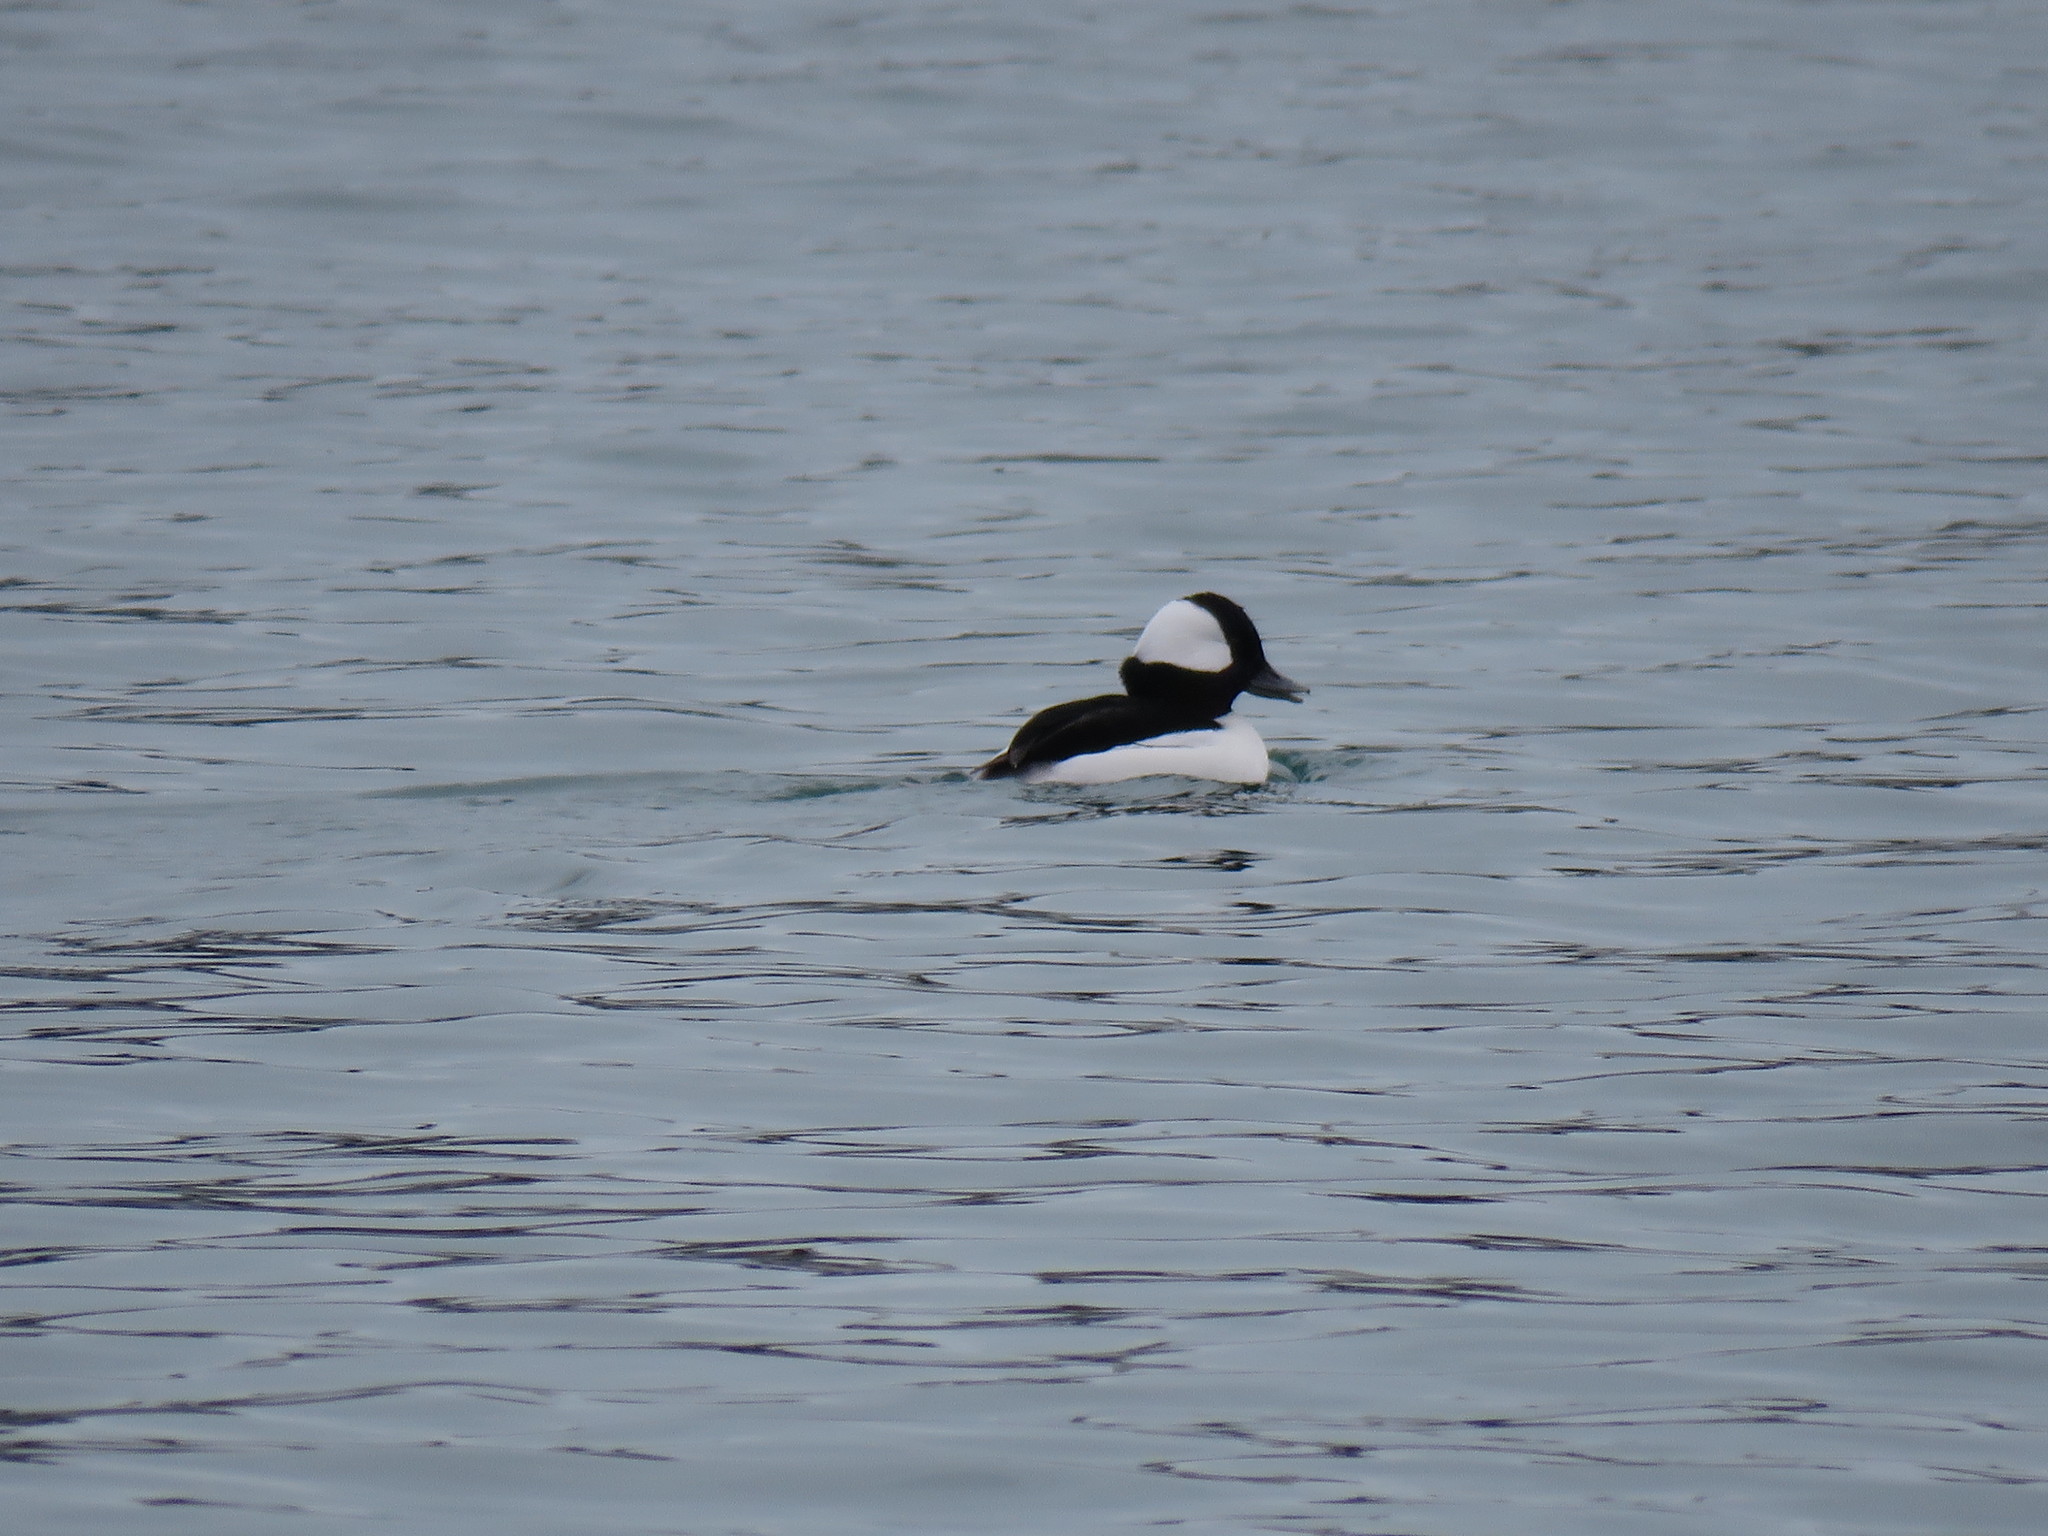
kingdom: Animalia
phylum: Chordata
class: Aves
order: Anseriformes
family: Anatidae
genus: Bucephala
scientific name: Bucephala albeola
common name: Bufflehead
